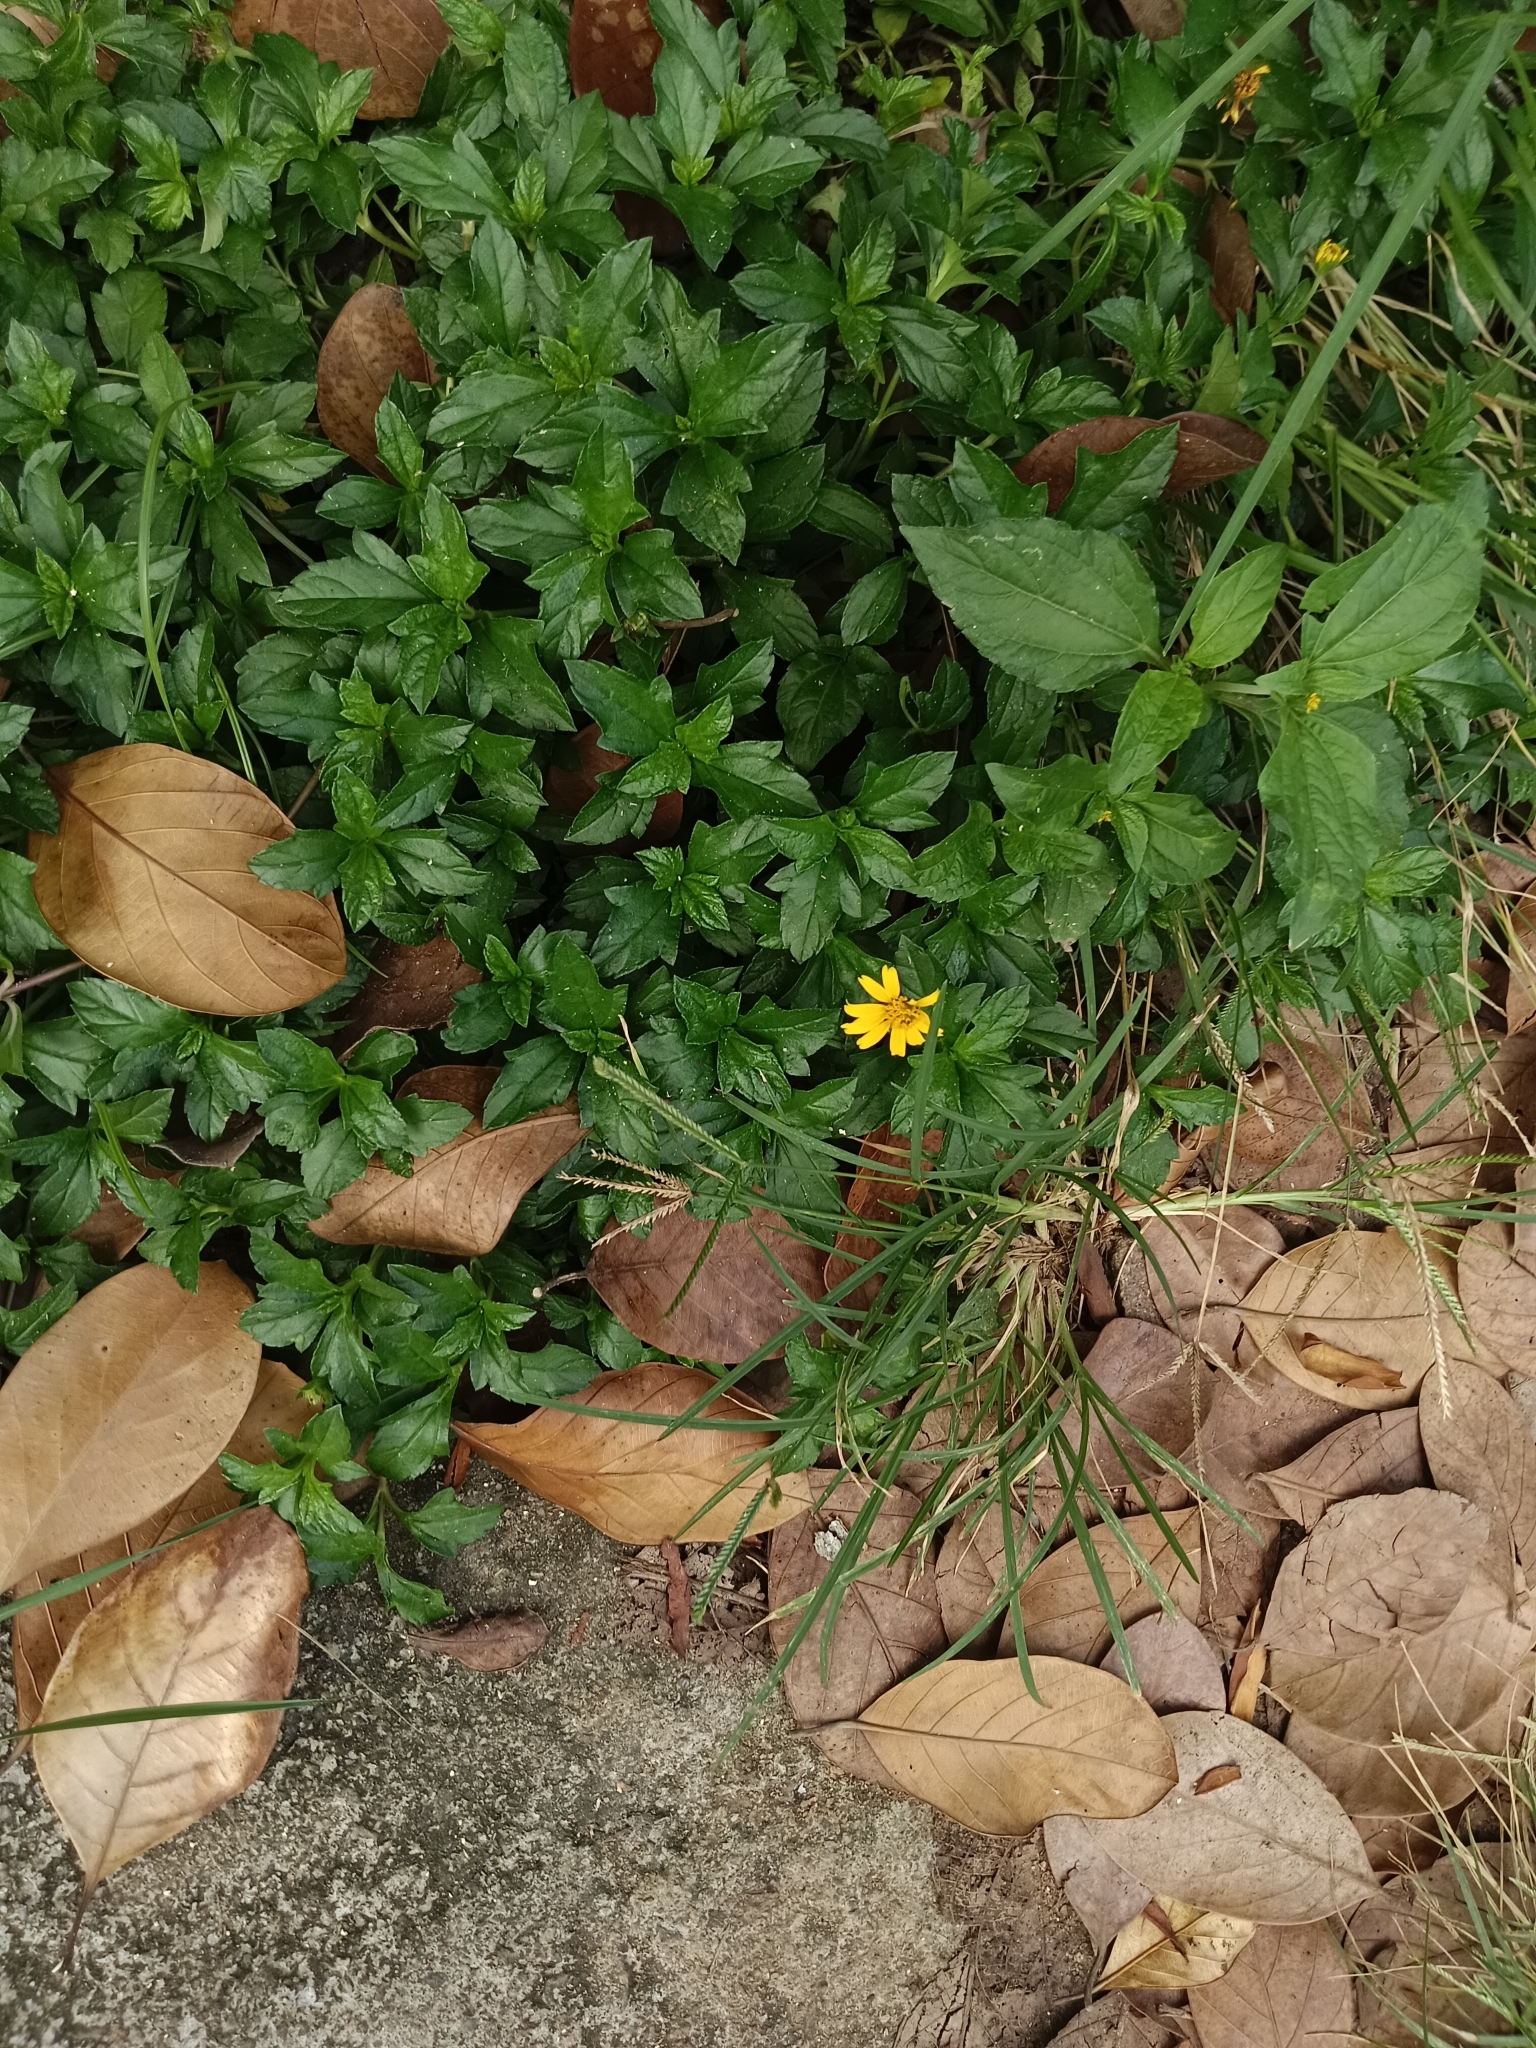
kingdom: Plantae
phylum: Tracheophyta
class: Magnoliopsida
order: Asterales
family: Asteraceae
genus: Sphagneticola
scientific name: Sphagneticola trilobata
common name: Bay biscayne creeping-oxeye
